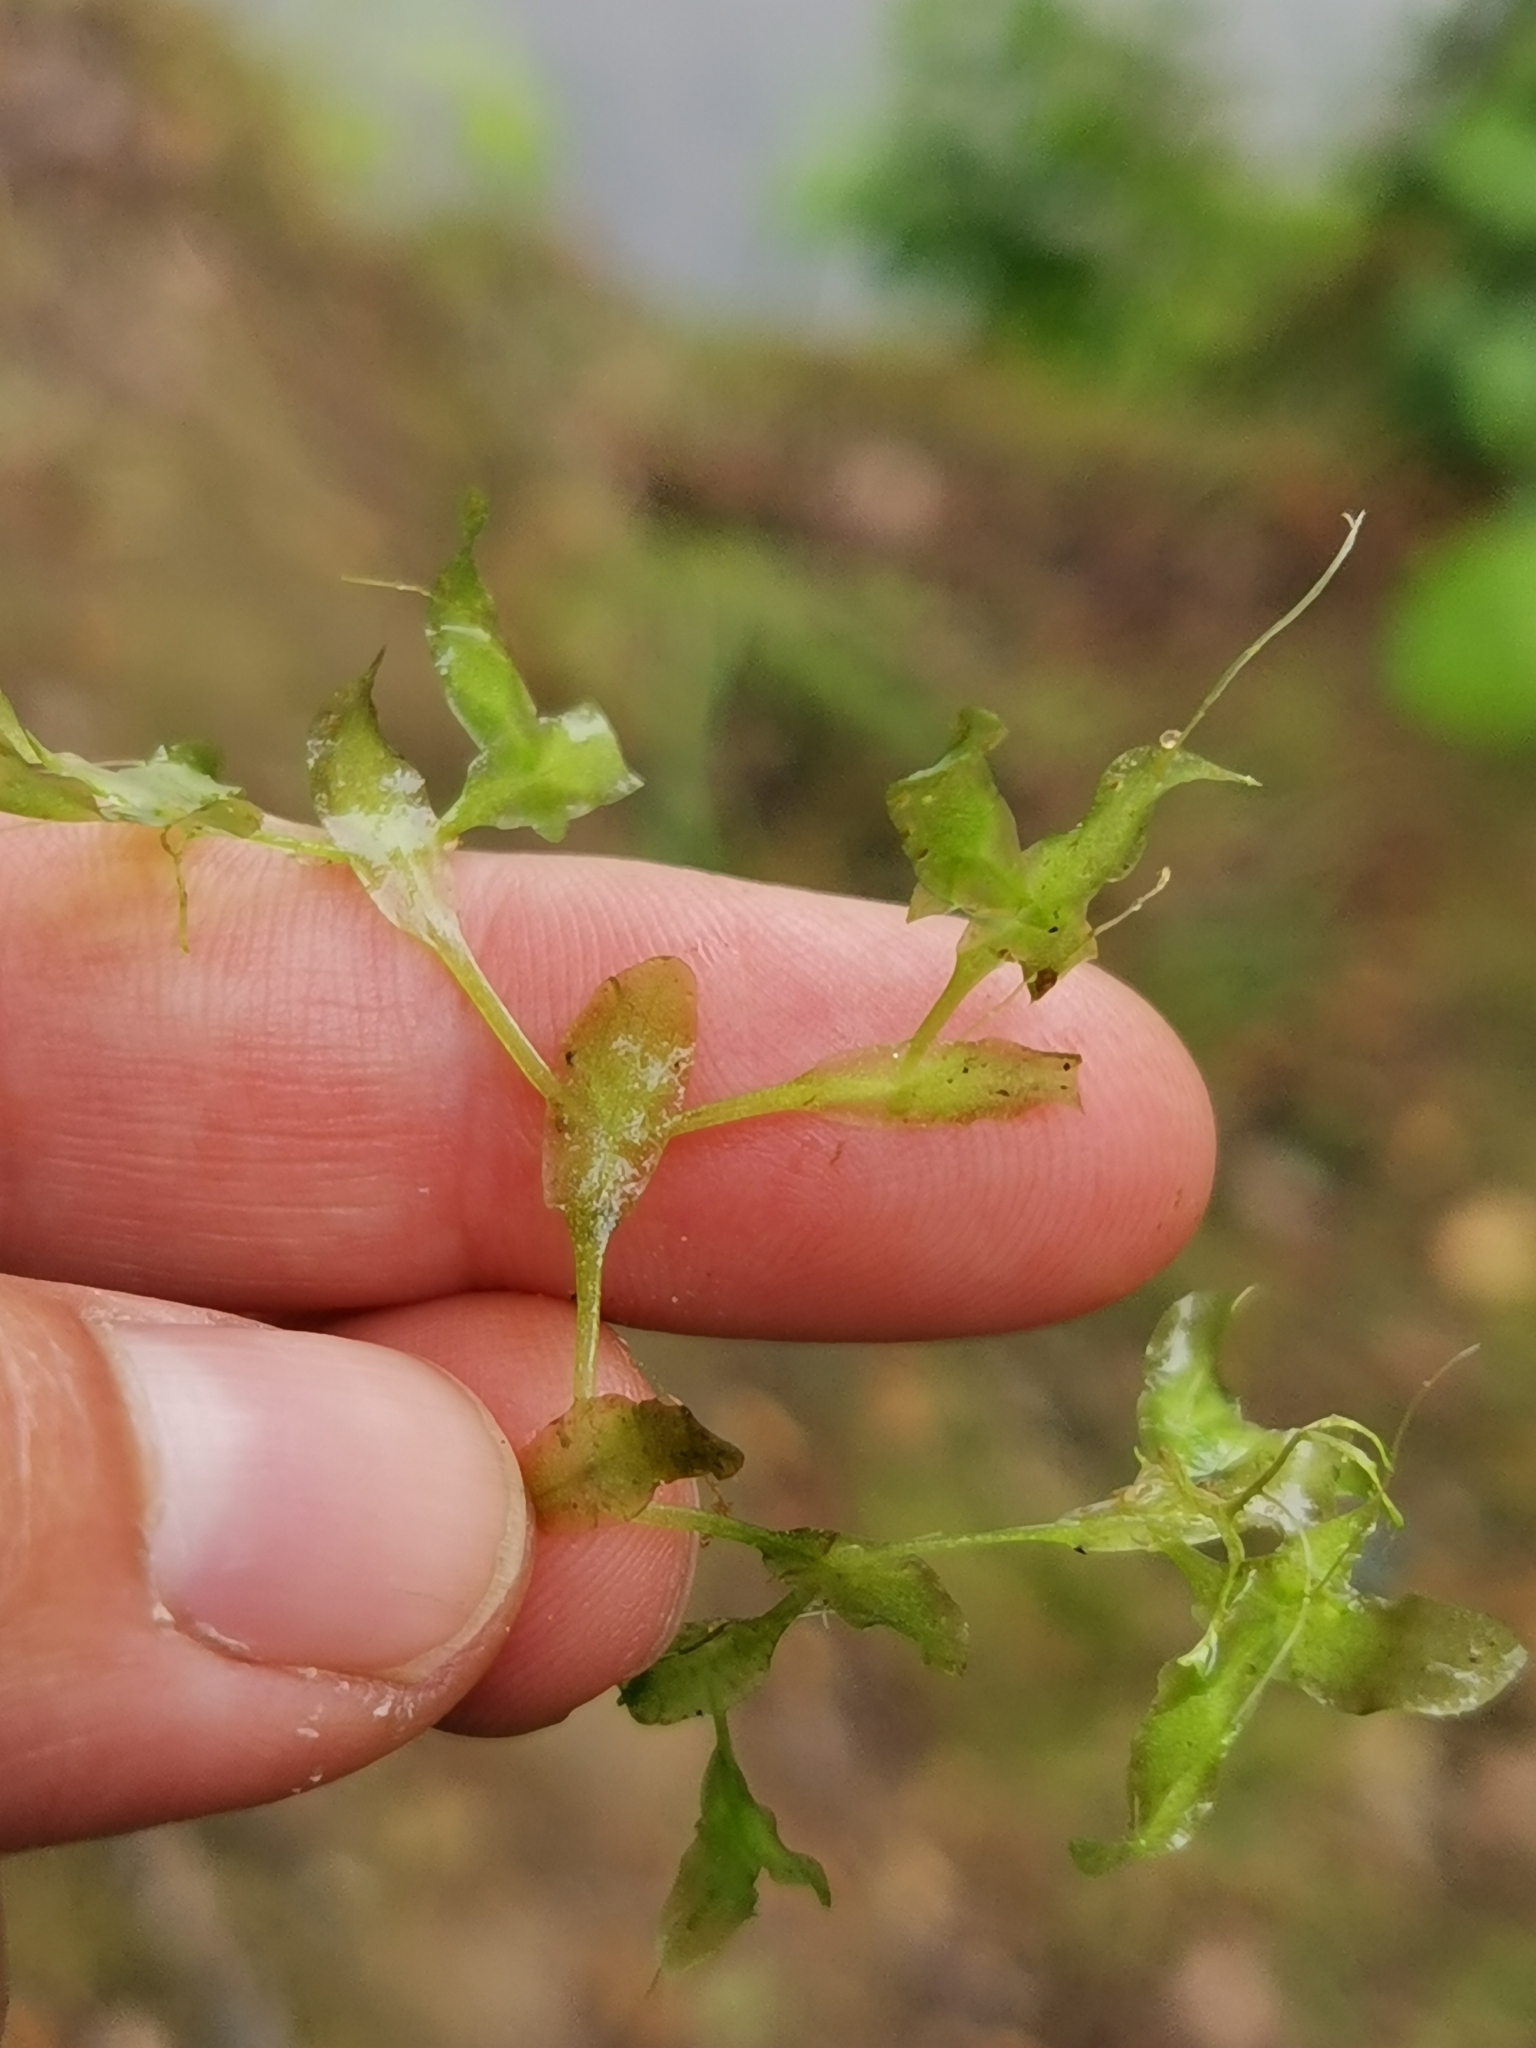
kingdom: Plantae
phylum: Tracheophyta
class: Liliopsida
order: Alismatales
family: Araceae
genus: Lemna
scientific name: Lemna trisulca
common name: Ivy-leaved duckweed
